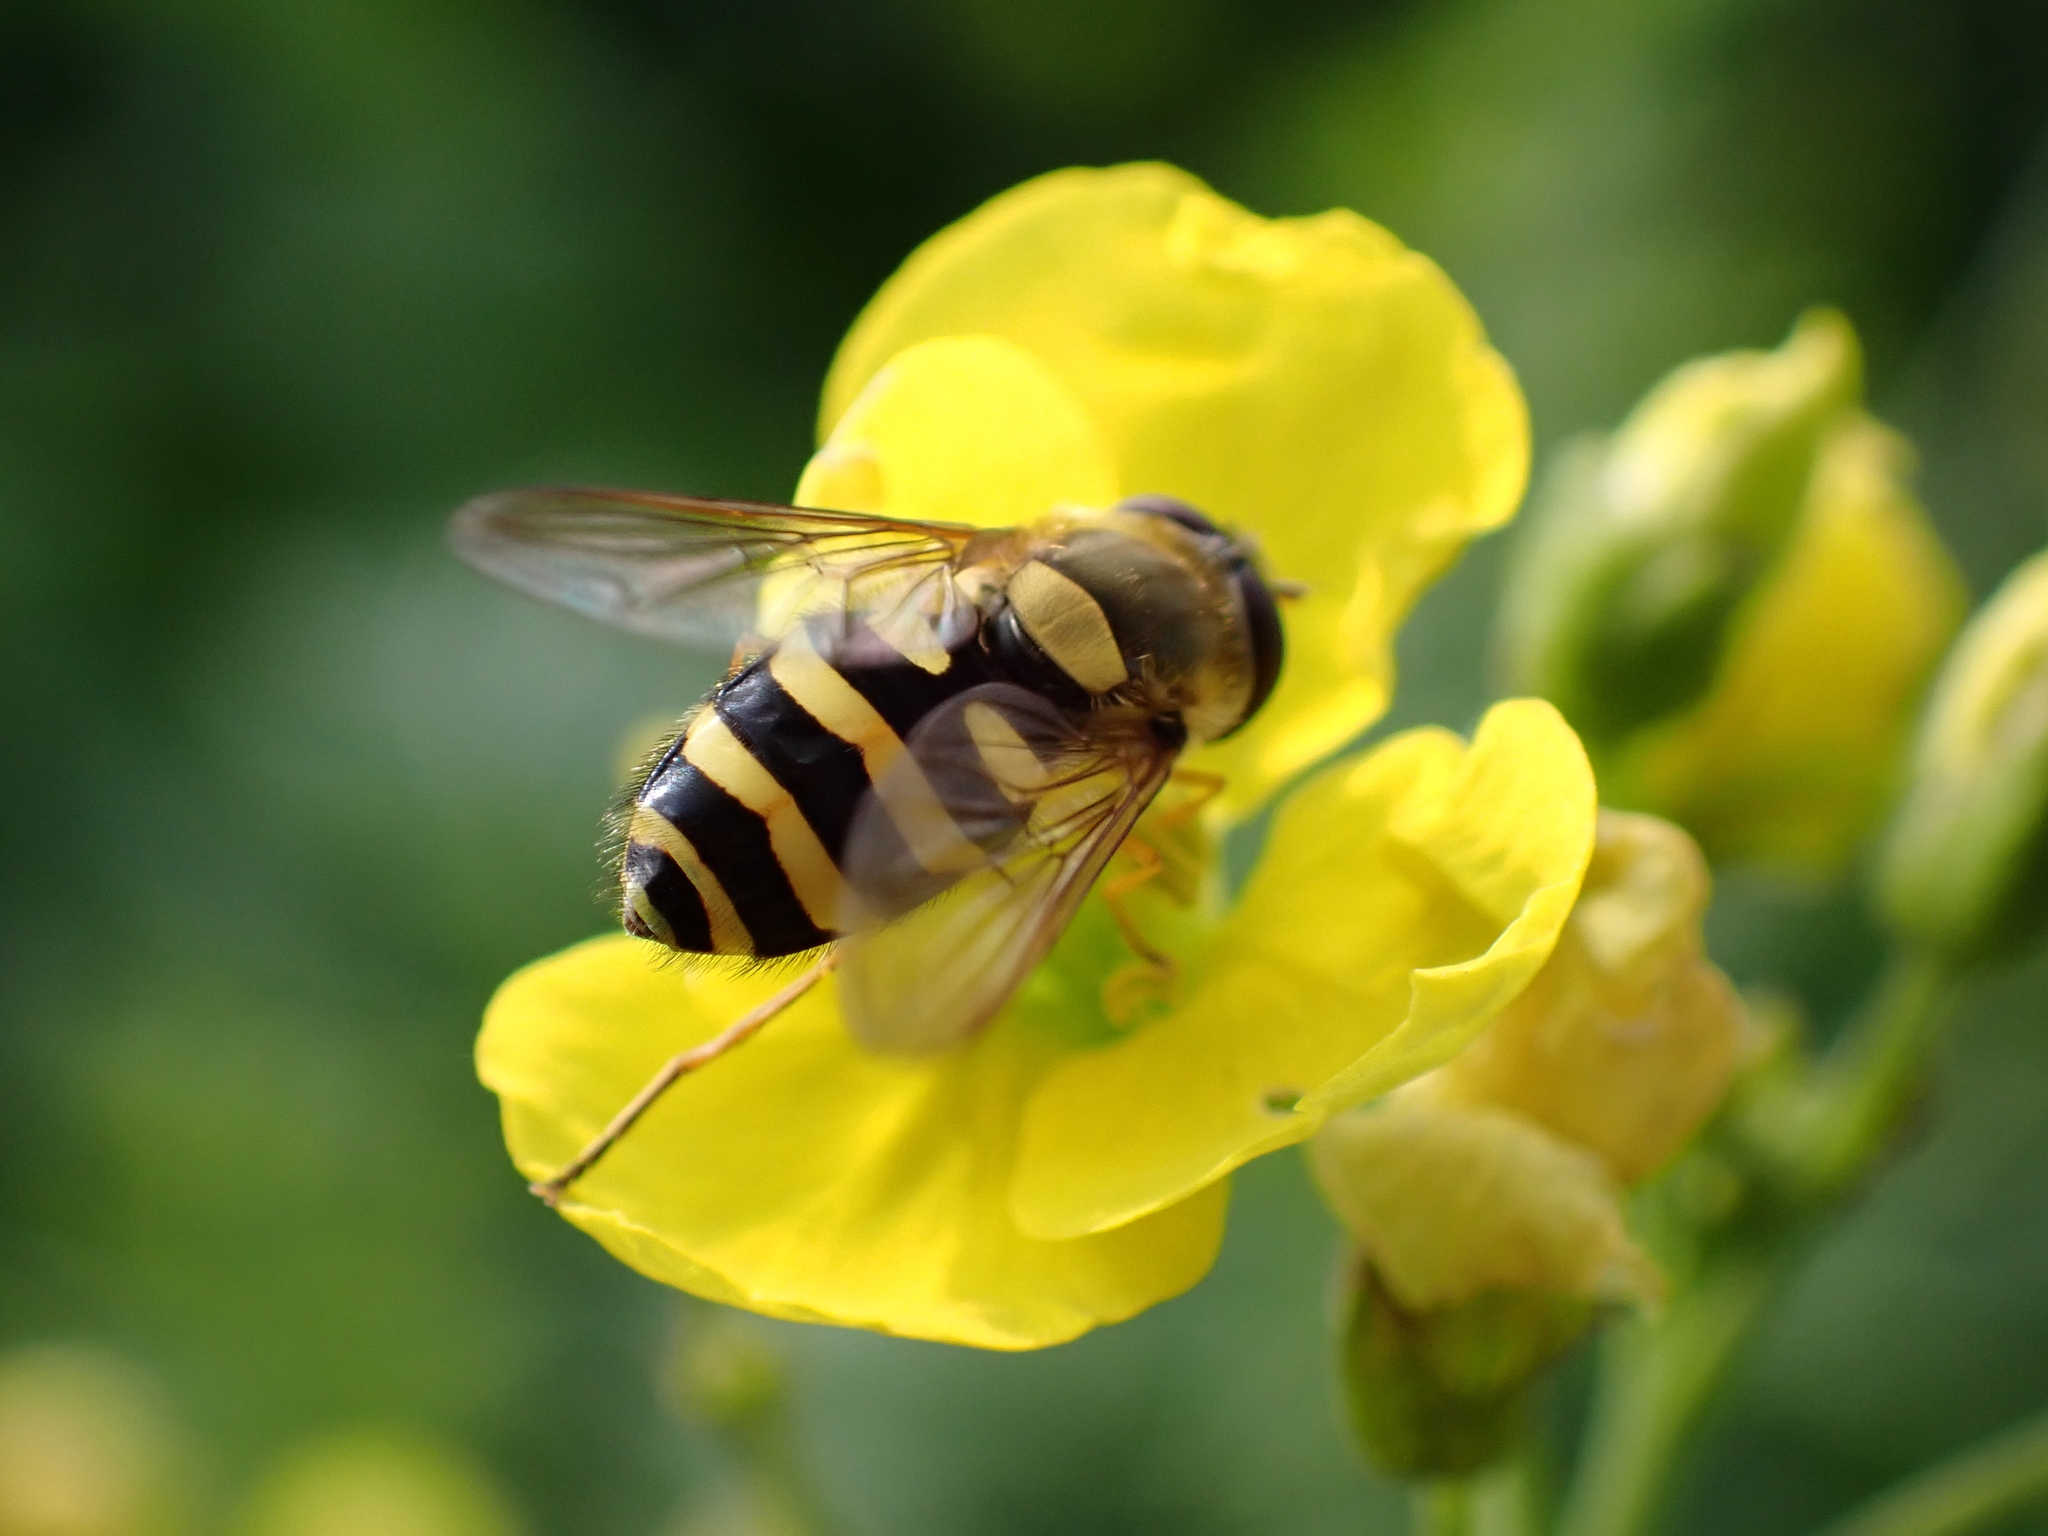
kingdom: Animalia
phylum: Arthropoda
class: Insecta
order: Diptera
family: Syrphidae
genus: Syrphus
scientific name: Syrphus ribesii
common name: Common flower fly
